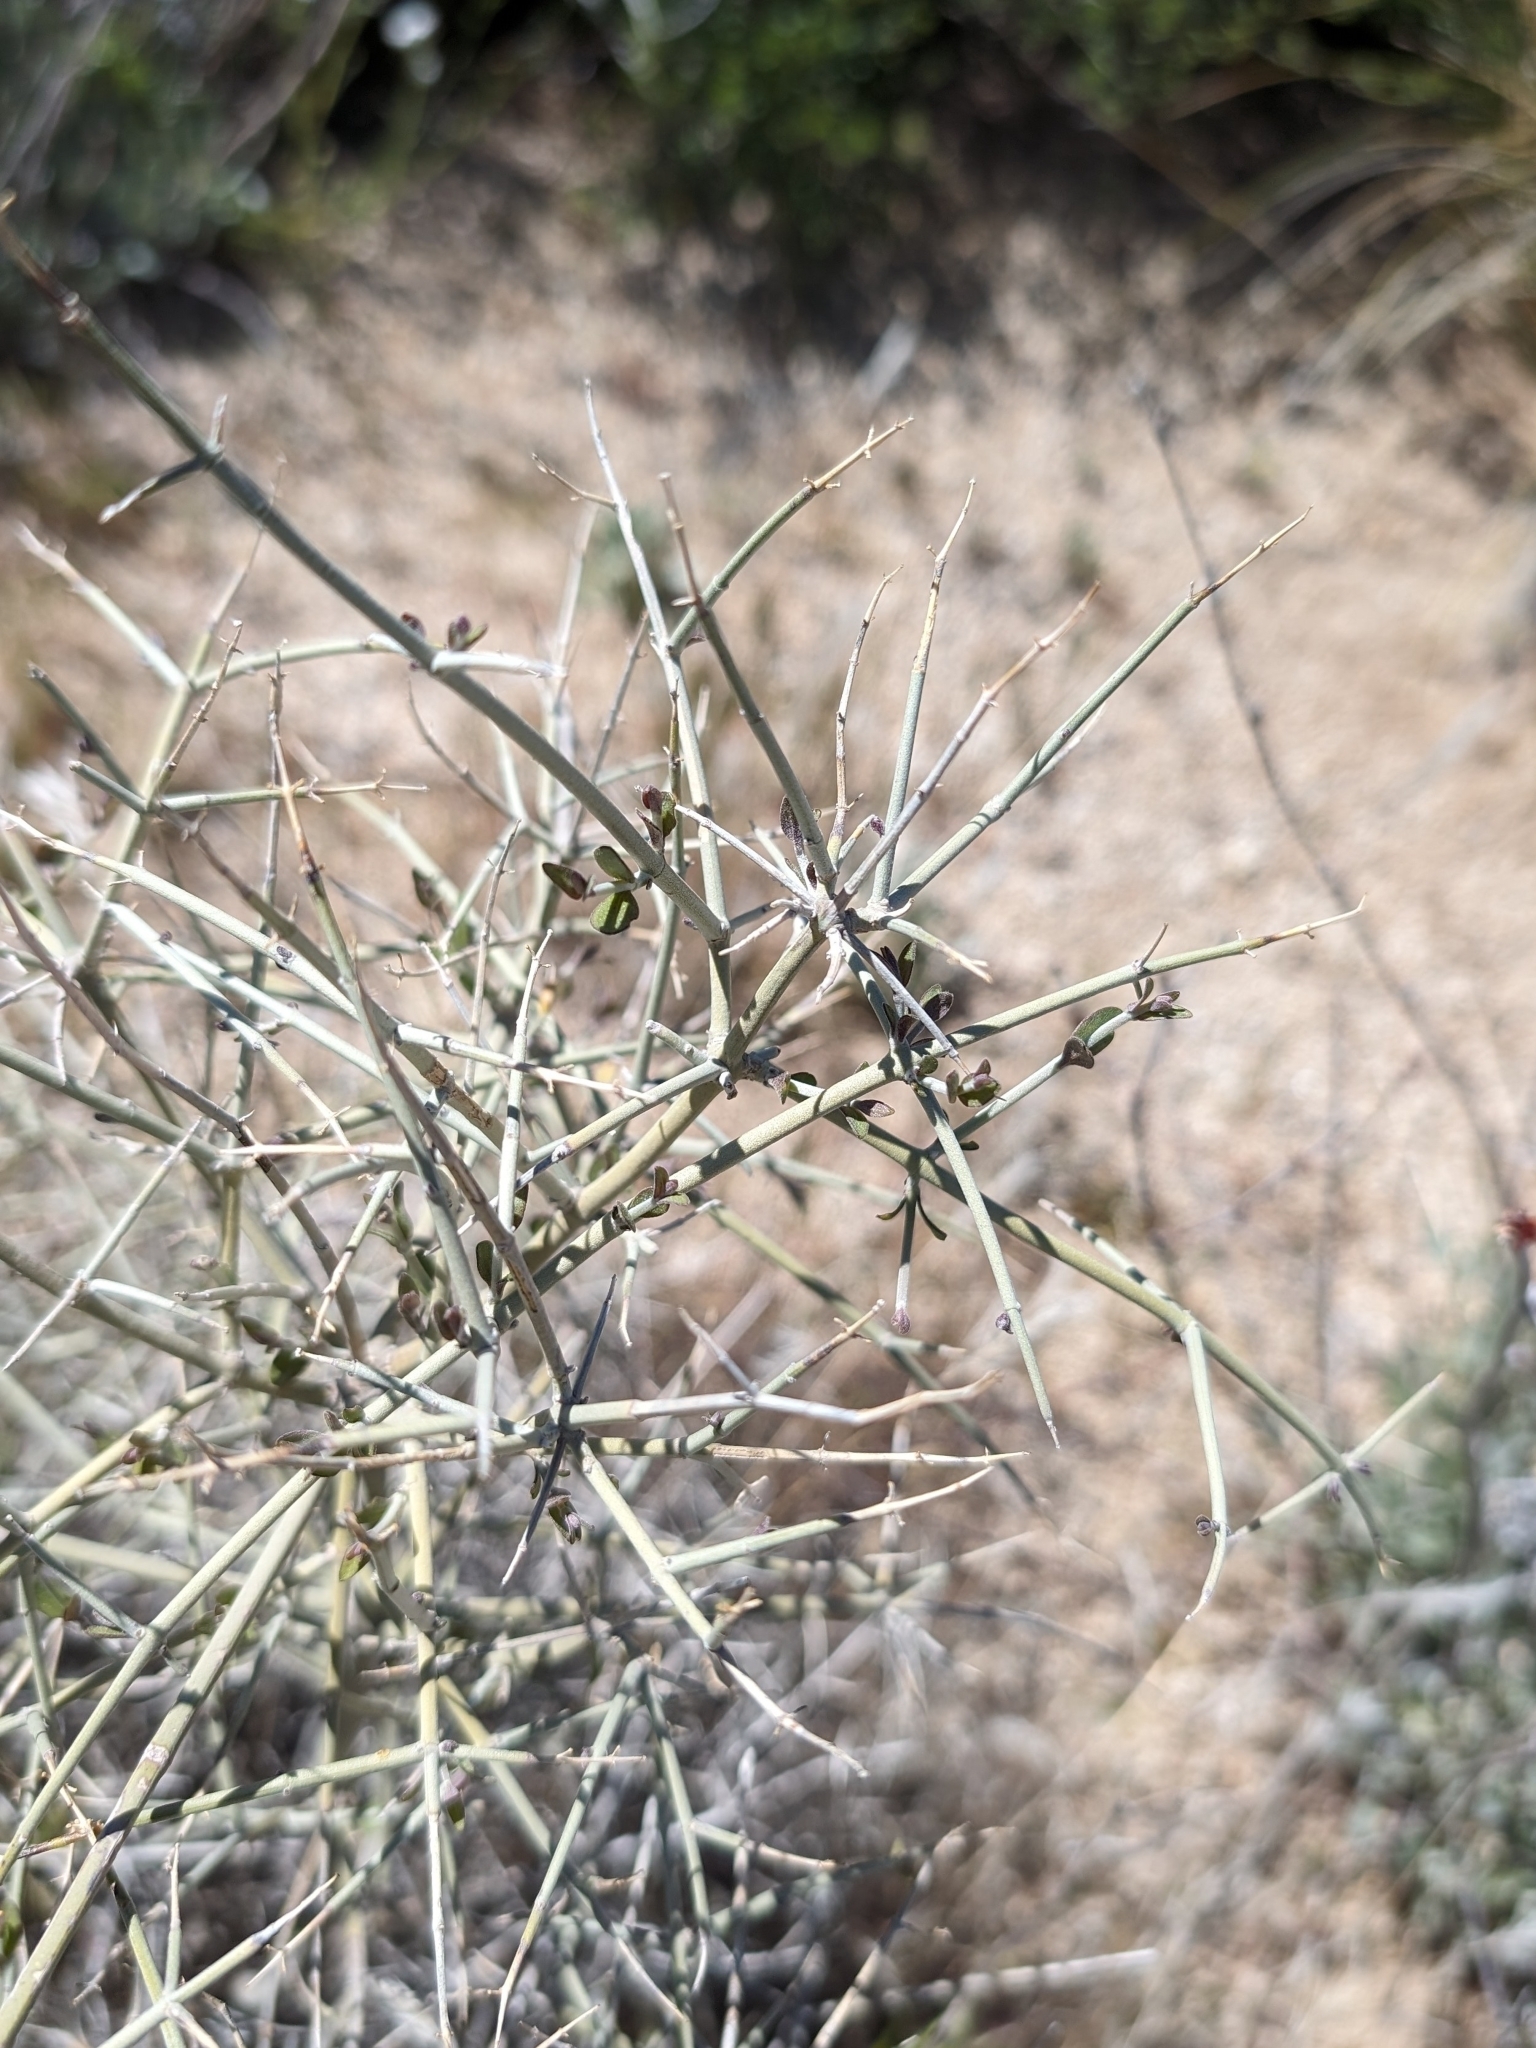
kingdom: Plantae
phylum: Tracheophyta
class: Magnoliopsida
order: Lamiales
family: Lamiaceae
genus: Scutellaria
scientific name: Scutellaria mexicana
